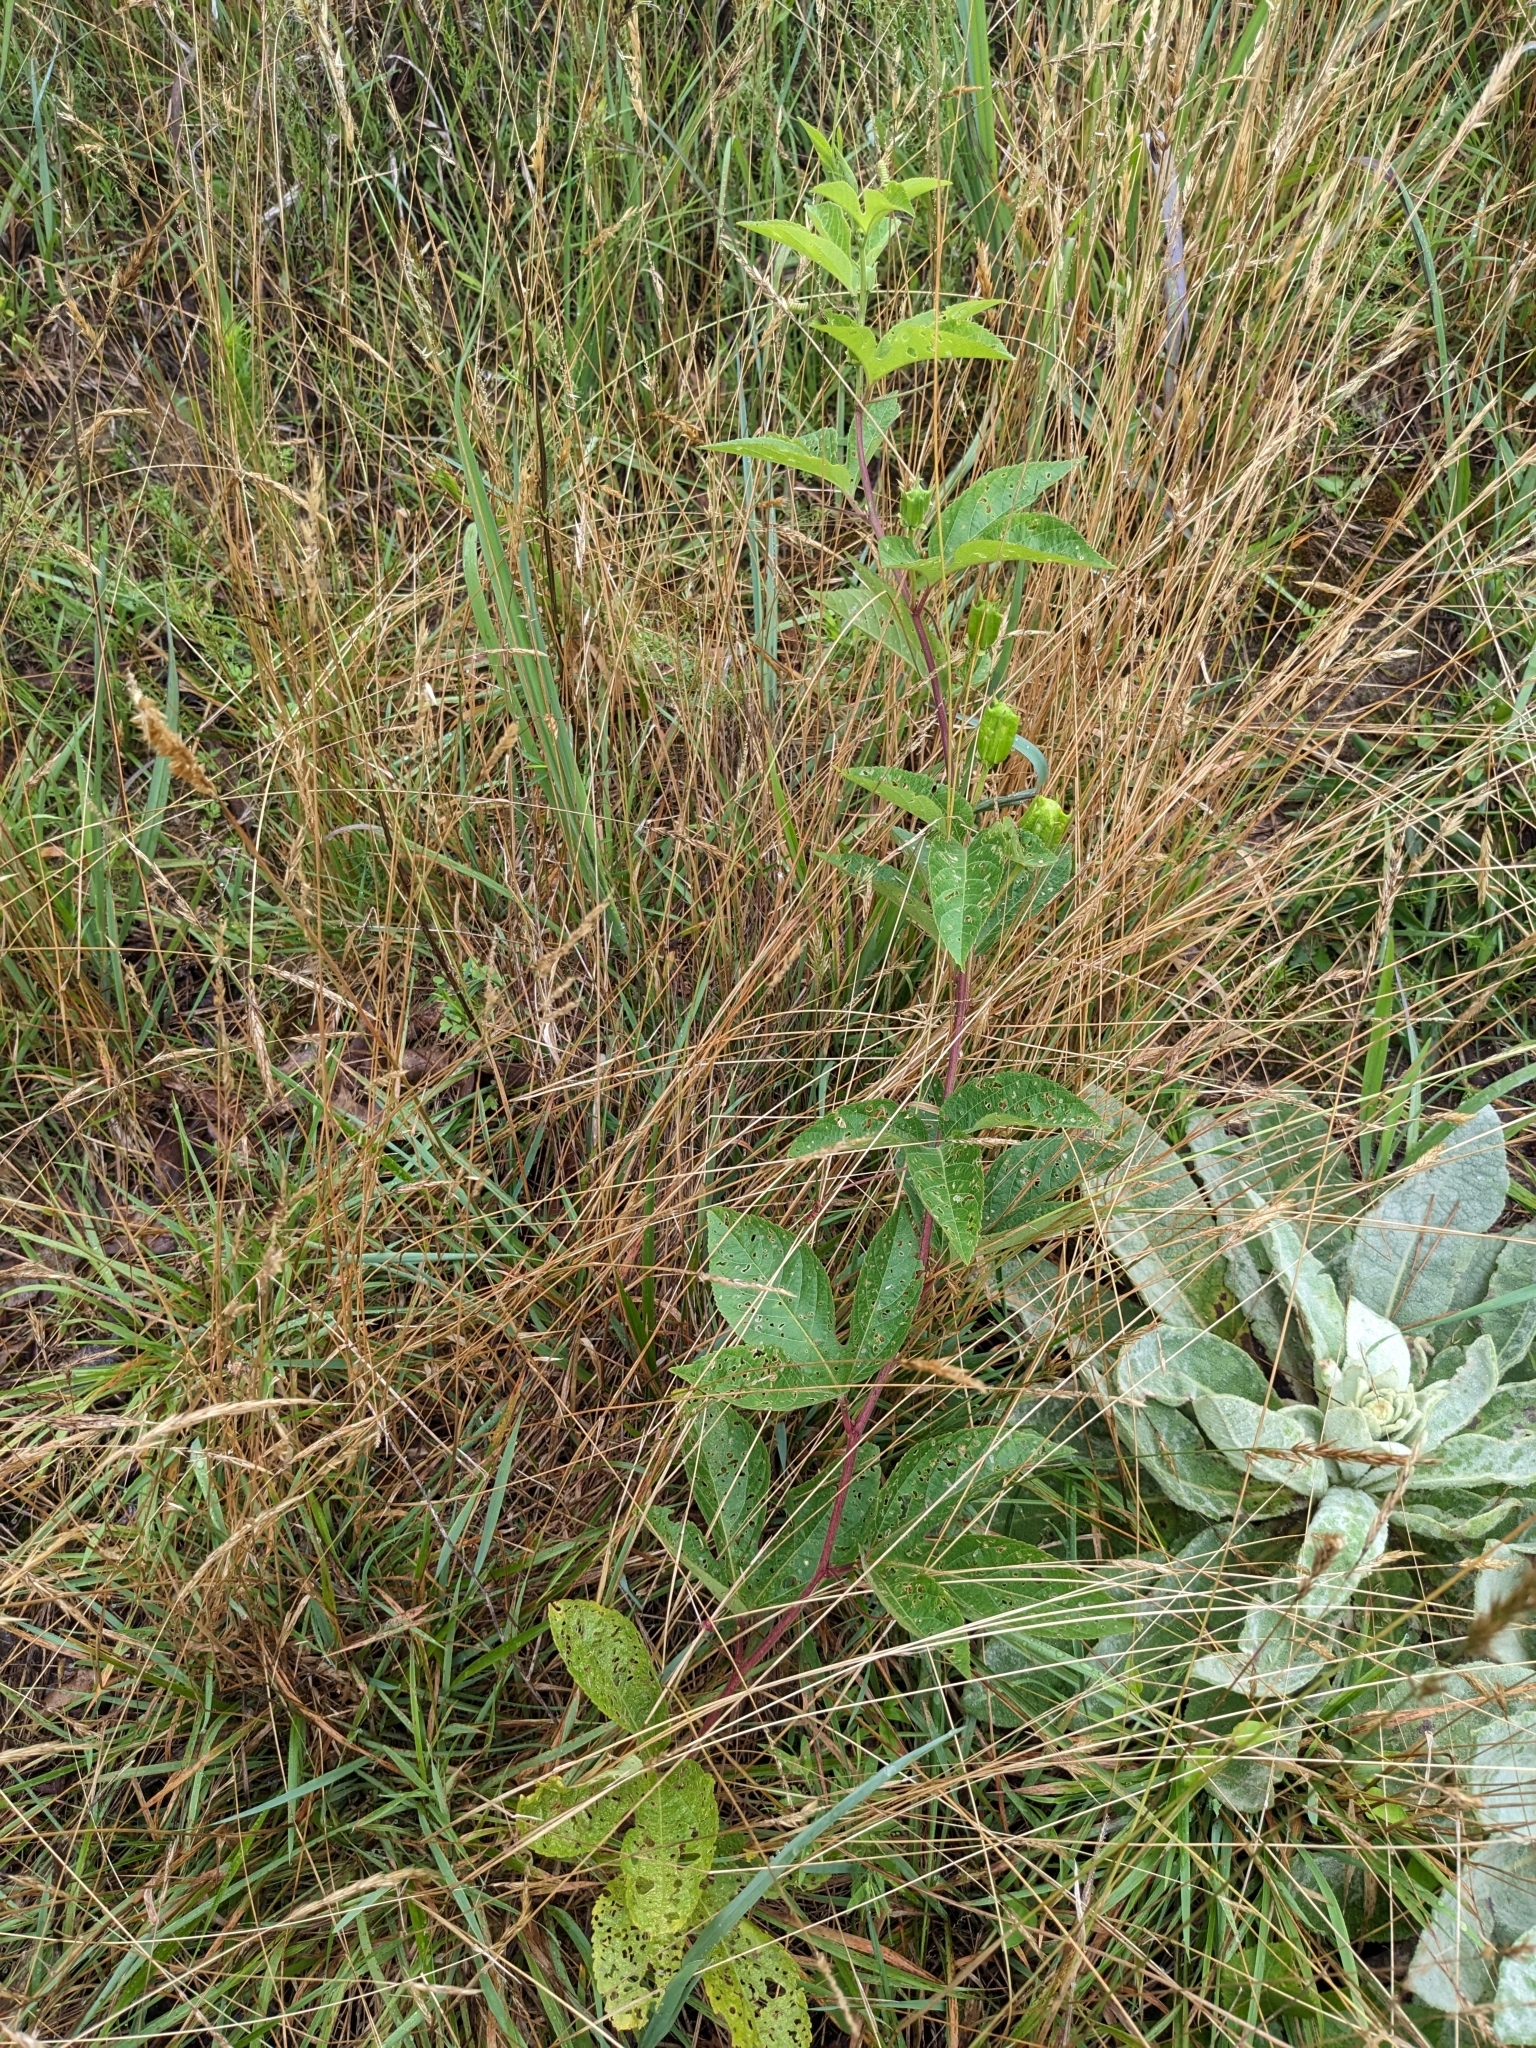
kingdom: Plantae
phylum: Tracheophyta
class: Magnoliopsida
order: Malpighiales
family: Passifloraceae
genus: Passiflora
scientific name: Passiflora incarnata
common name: Apricot-vine
